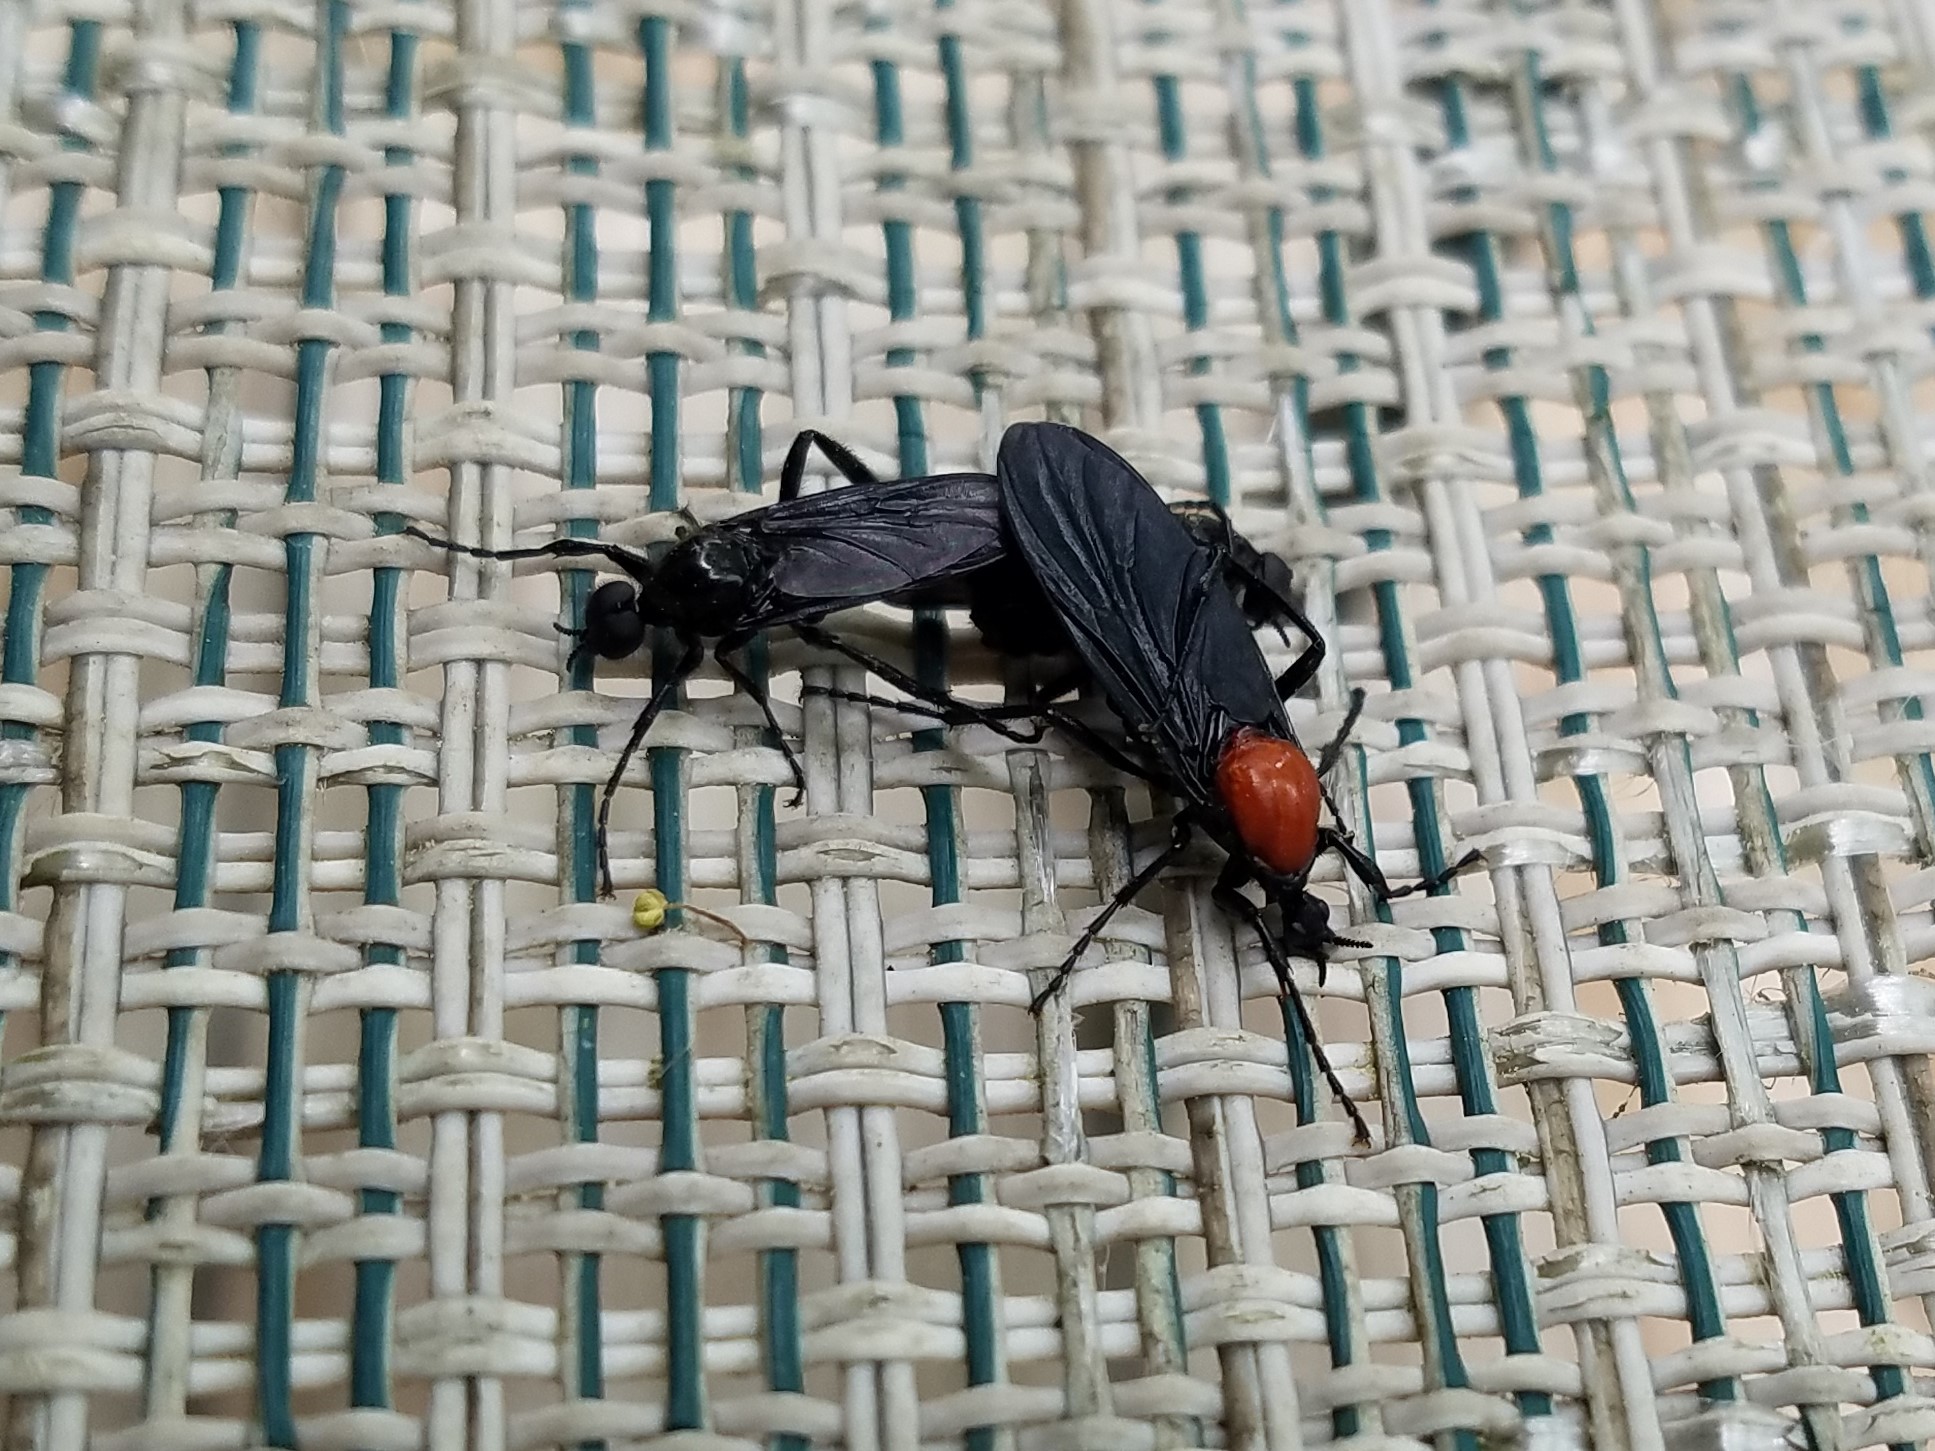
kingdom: Animalia
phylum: Arthropoda
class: Insecta
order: Diptera
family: Bibionidae
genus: Bibio
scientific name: Bibio superfluus
